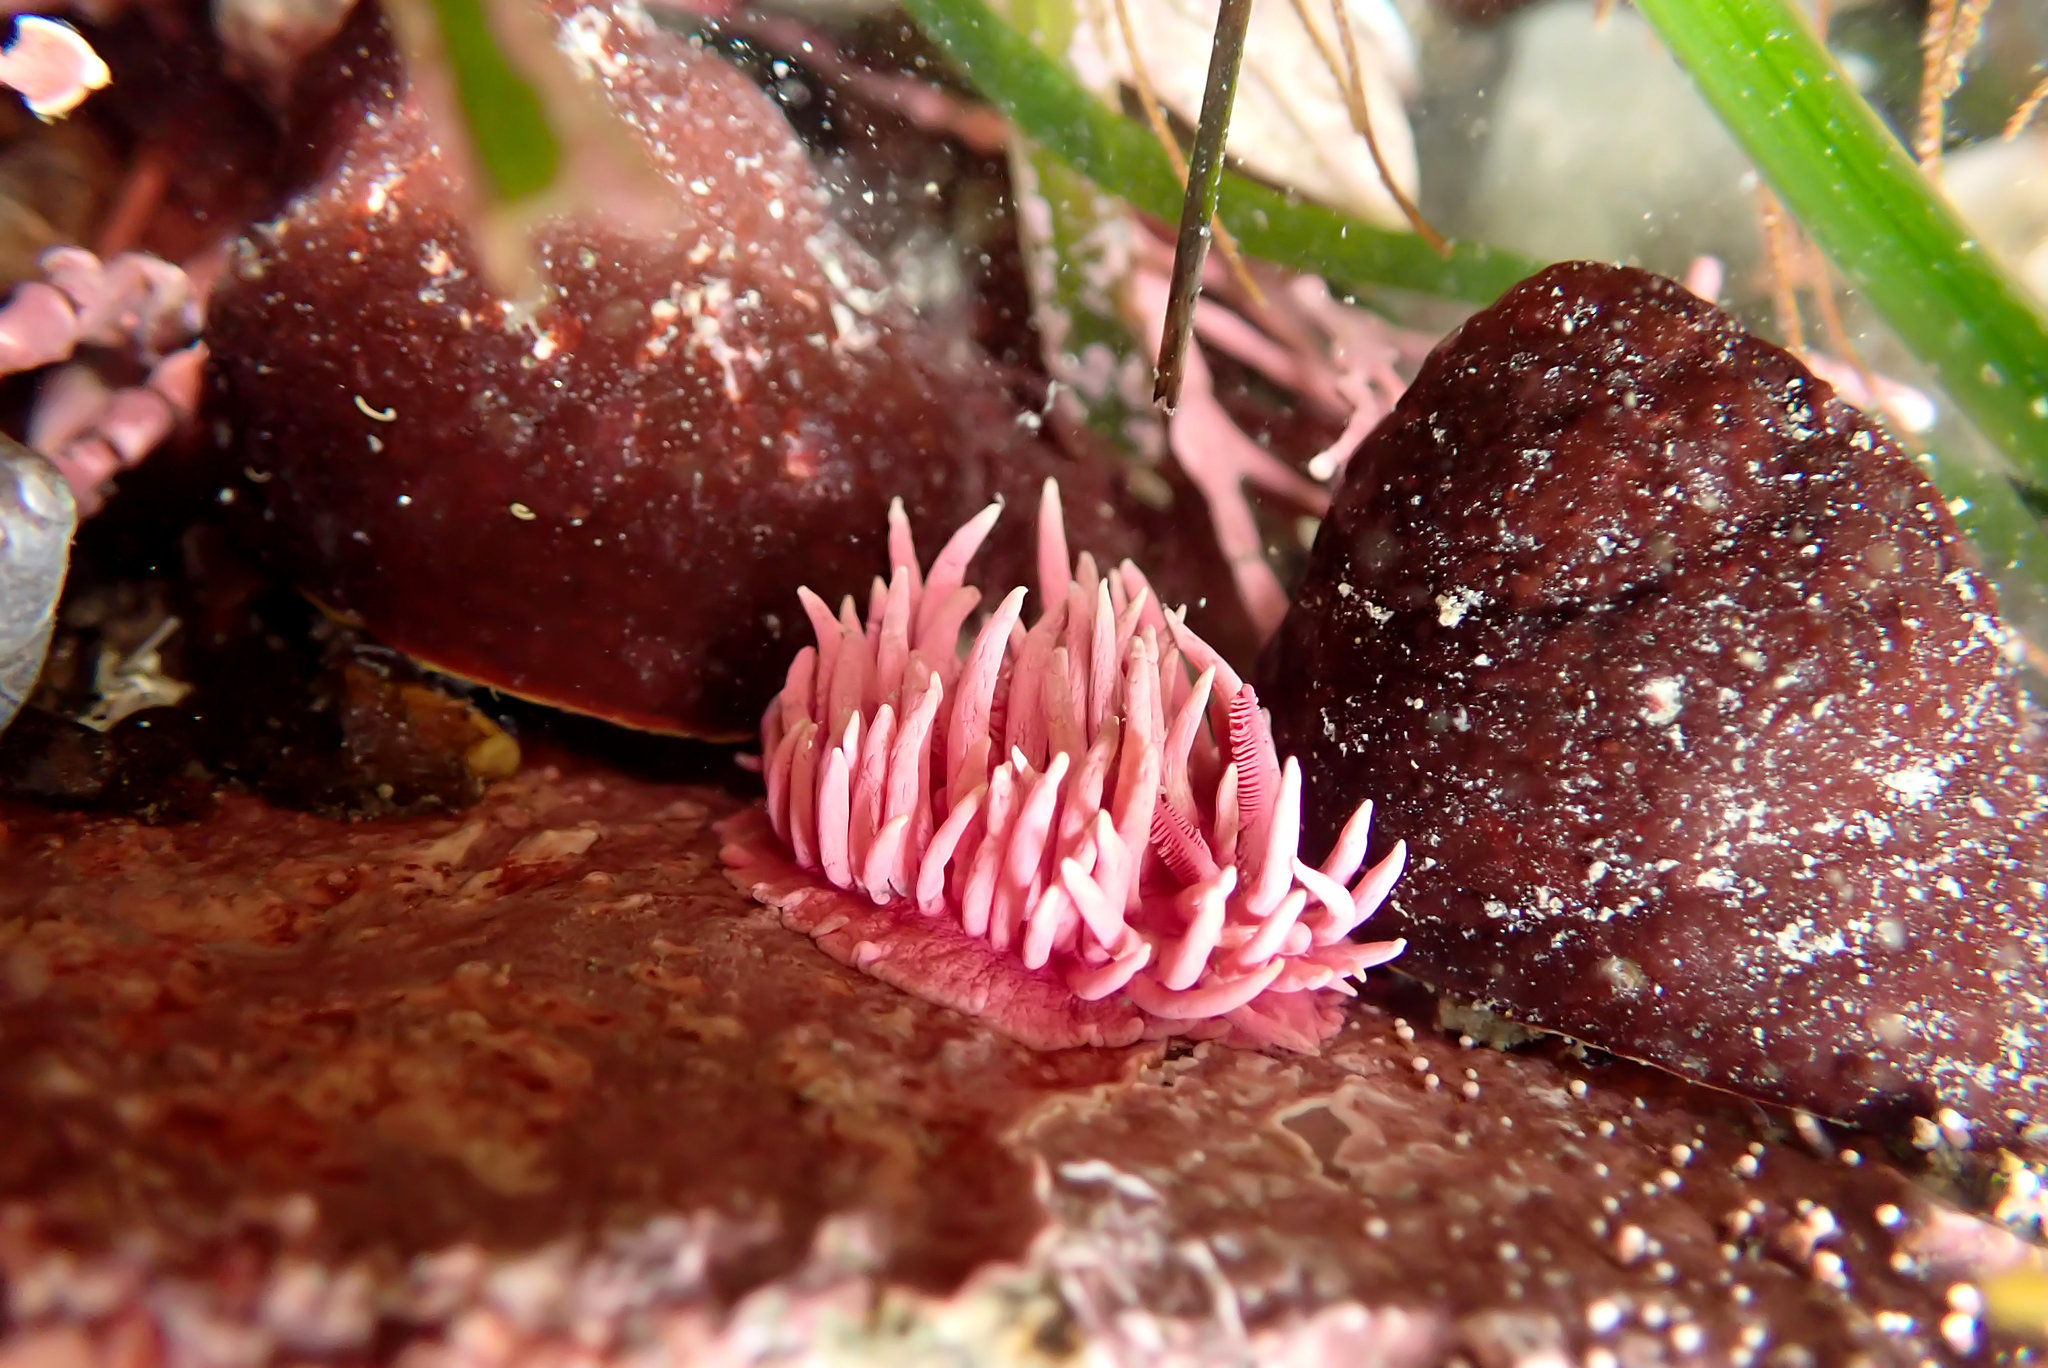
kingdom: Animalia
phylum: Mollusca
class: Gastropoda
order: Nudibranchia
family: Goniodorididae
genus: Okenia
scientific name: Okenia
